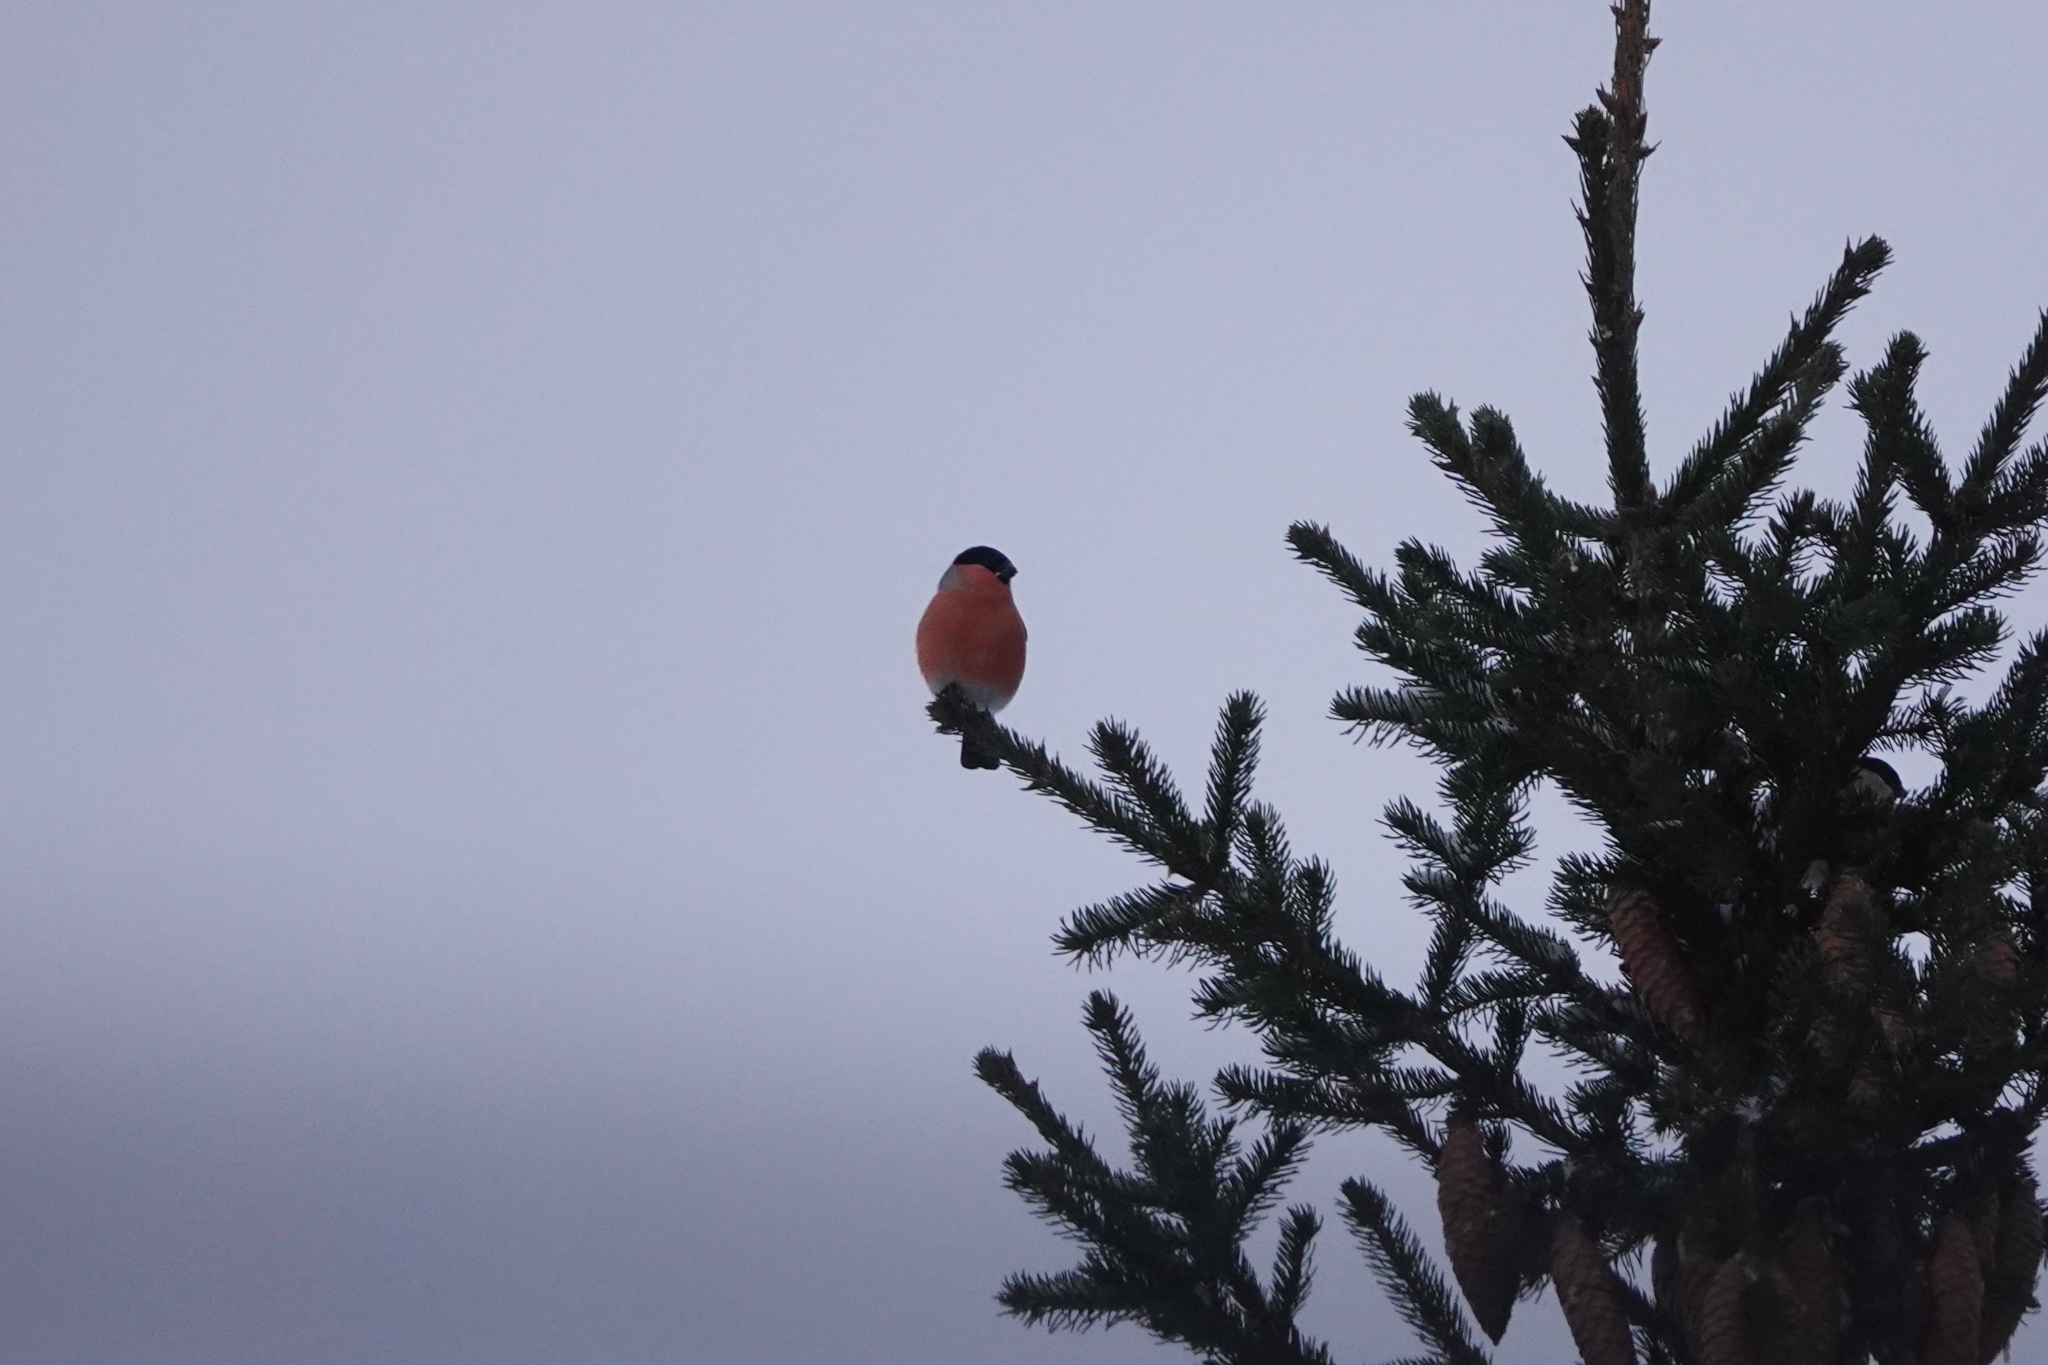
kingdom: Animalia
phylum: Chordata
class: Aves
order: Passeriformes
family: Fringillidae
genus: Pyrrhula
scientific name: Pyrrhula pyrrhula
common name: Eurasian bullfinch
